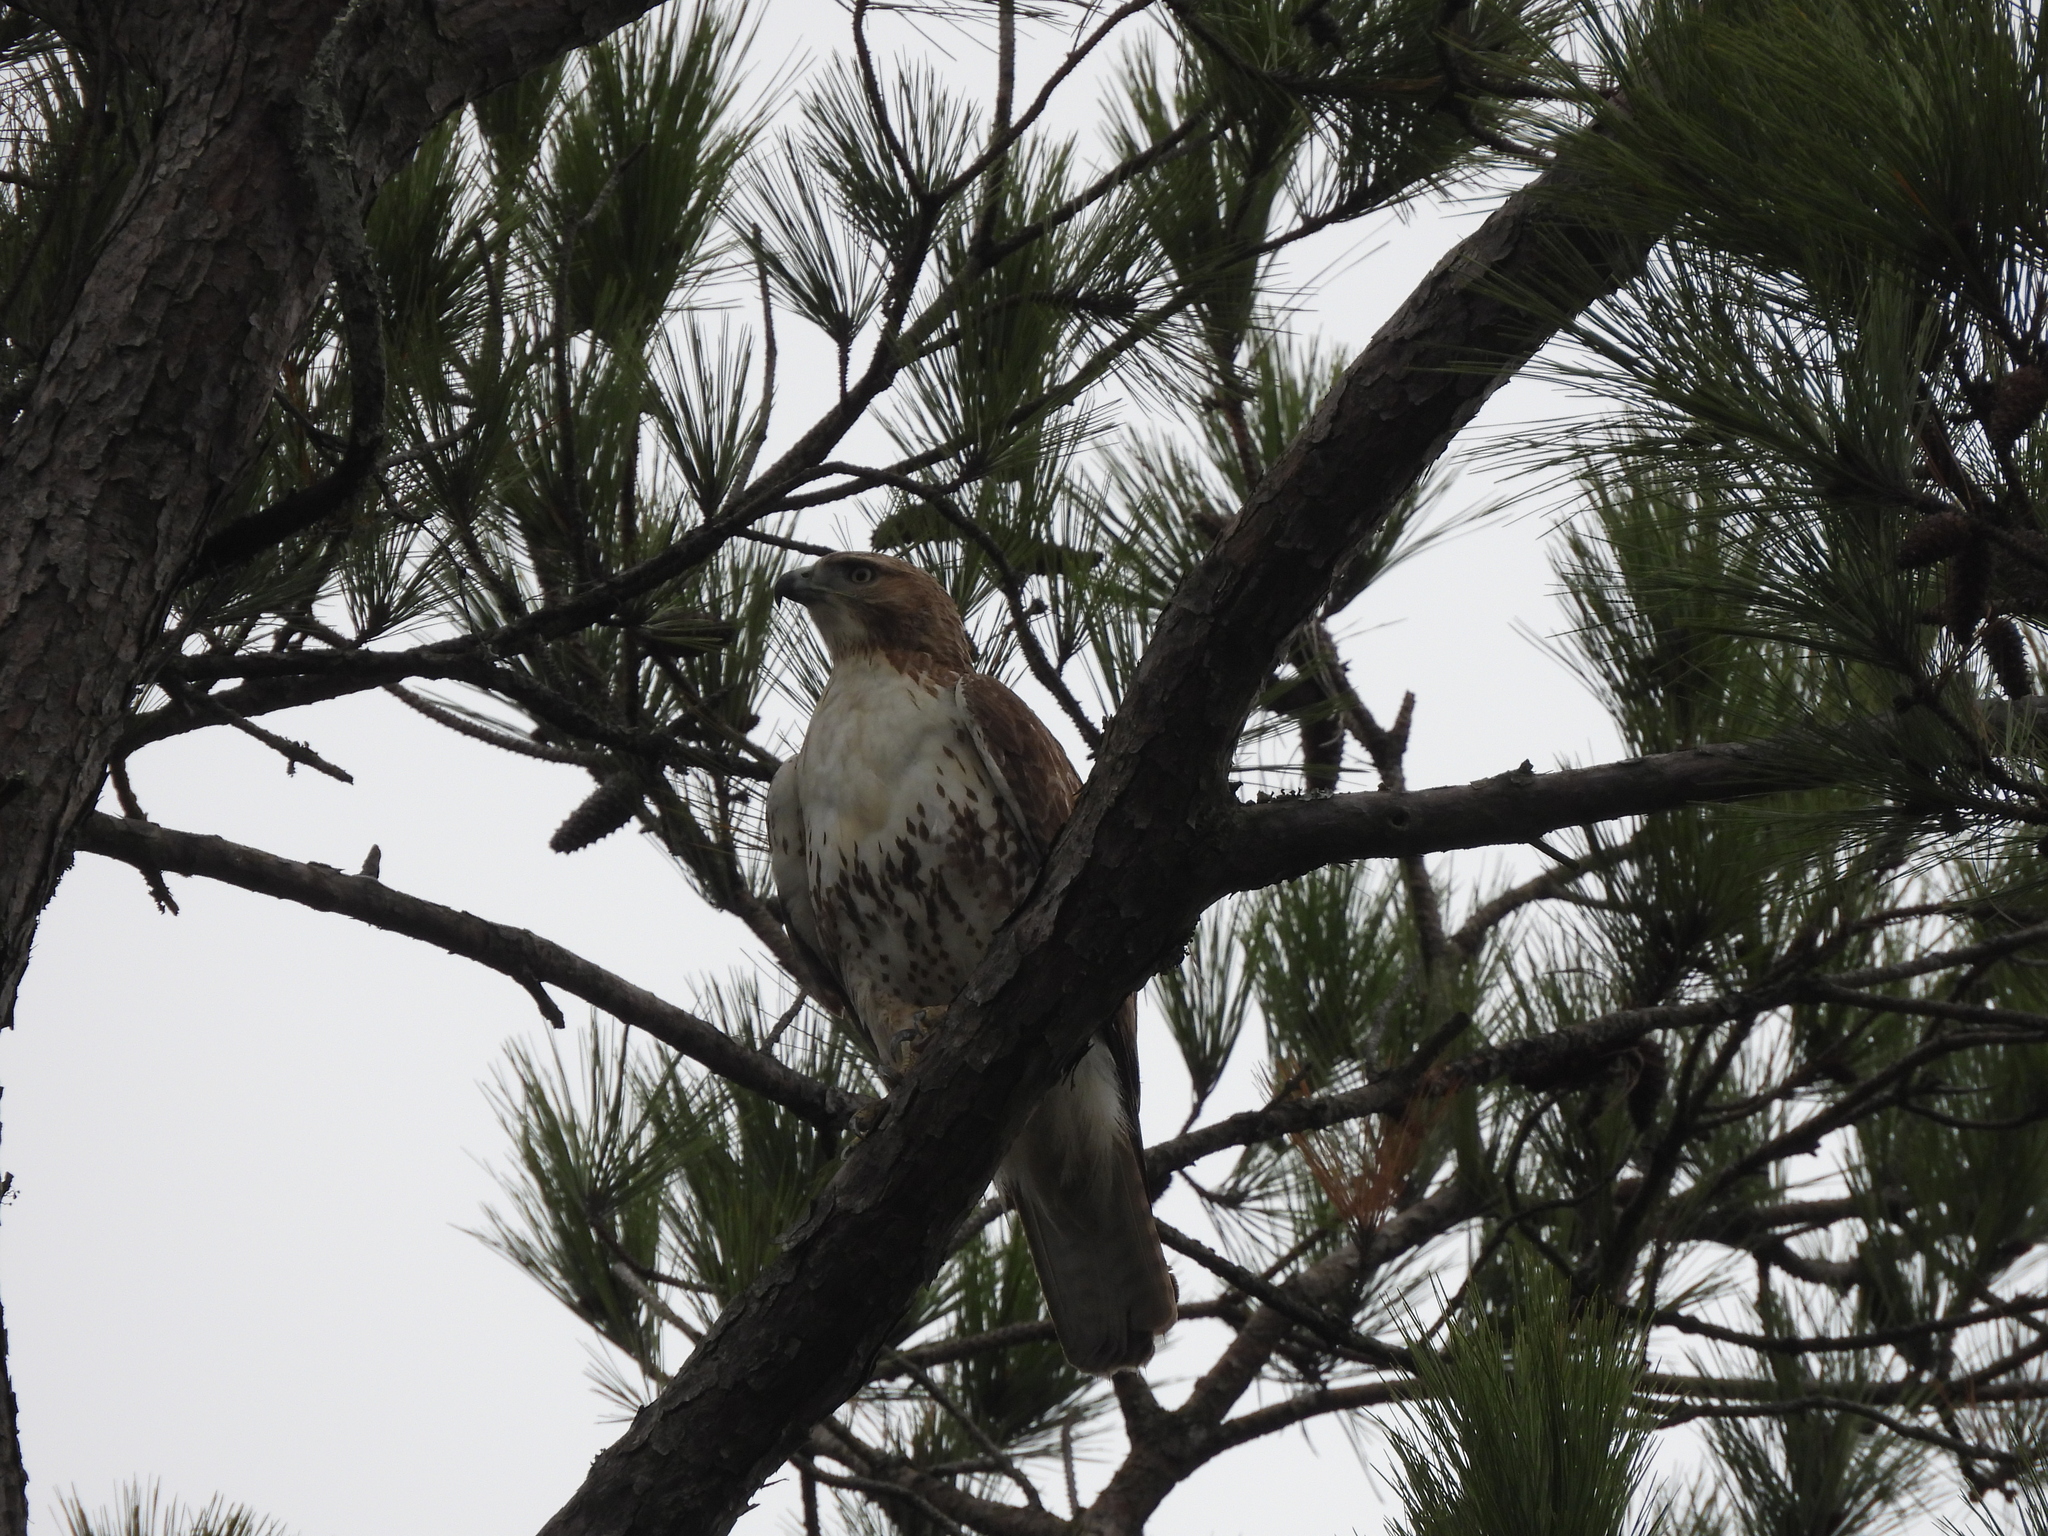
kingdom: Animalia
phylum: Chordata
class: Aves
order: Accipitriformes
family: Accipitridae
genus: Buteo
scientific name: Buteo jamaicensis
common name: Red-tailed hawk
